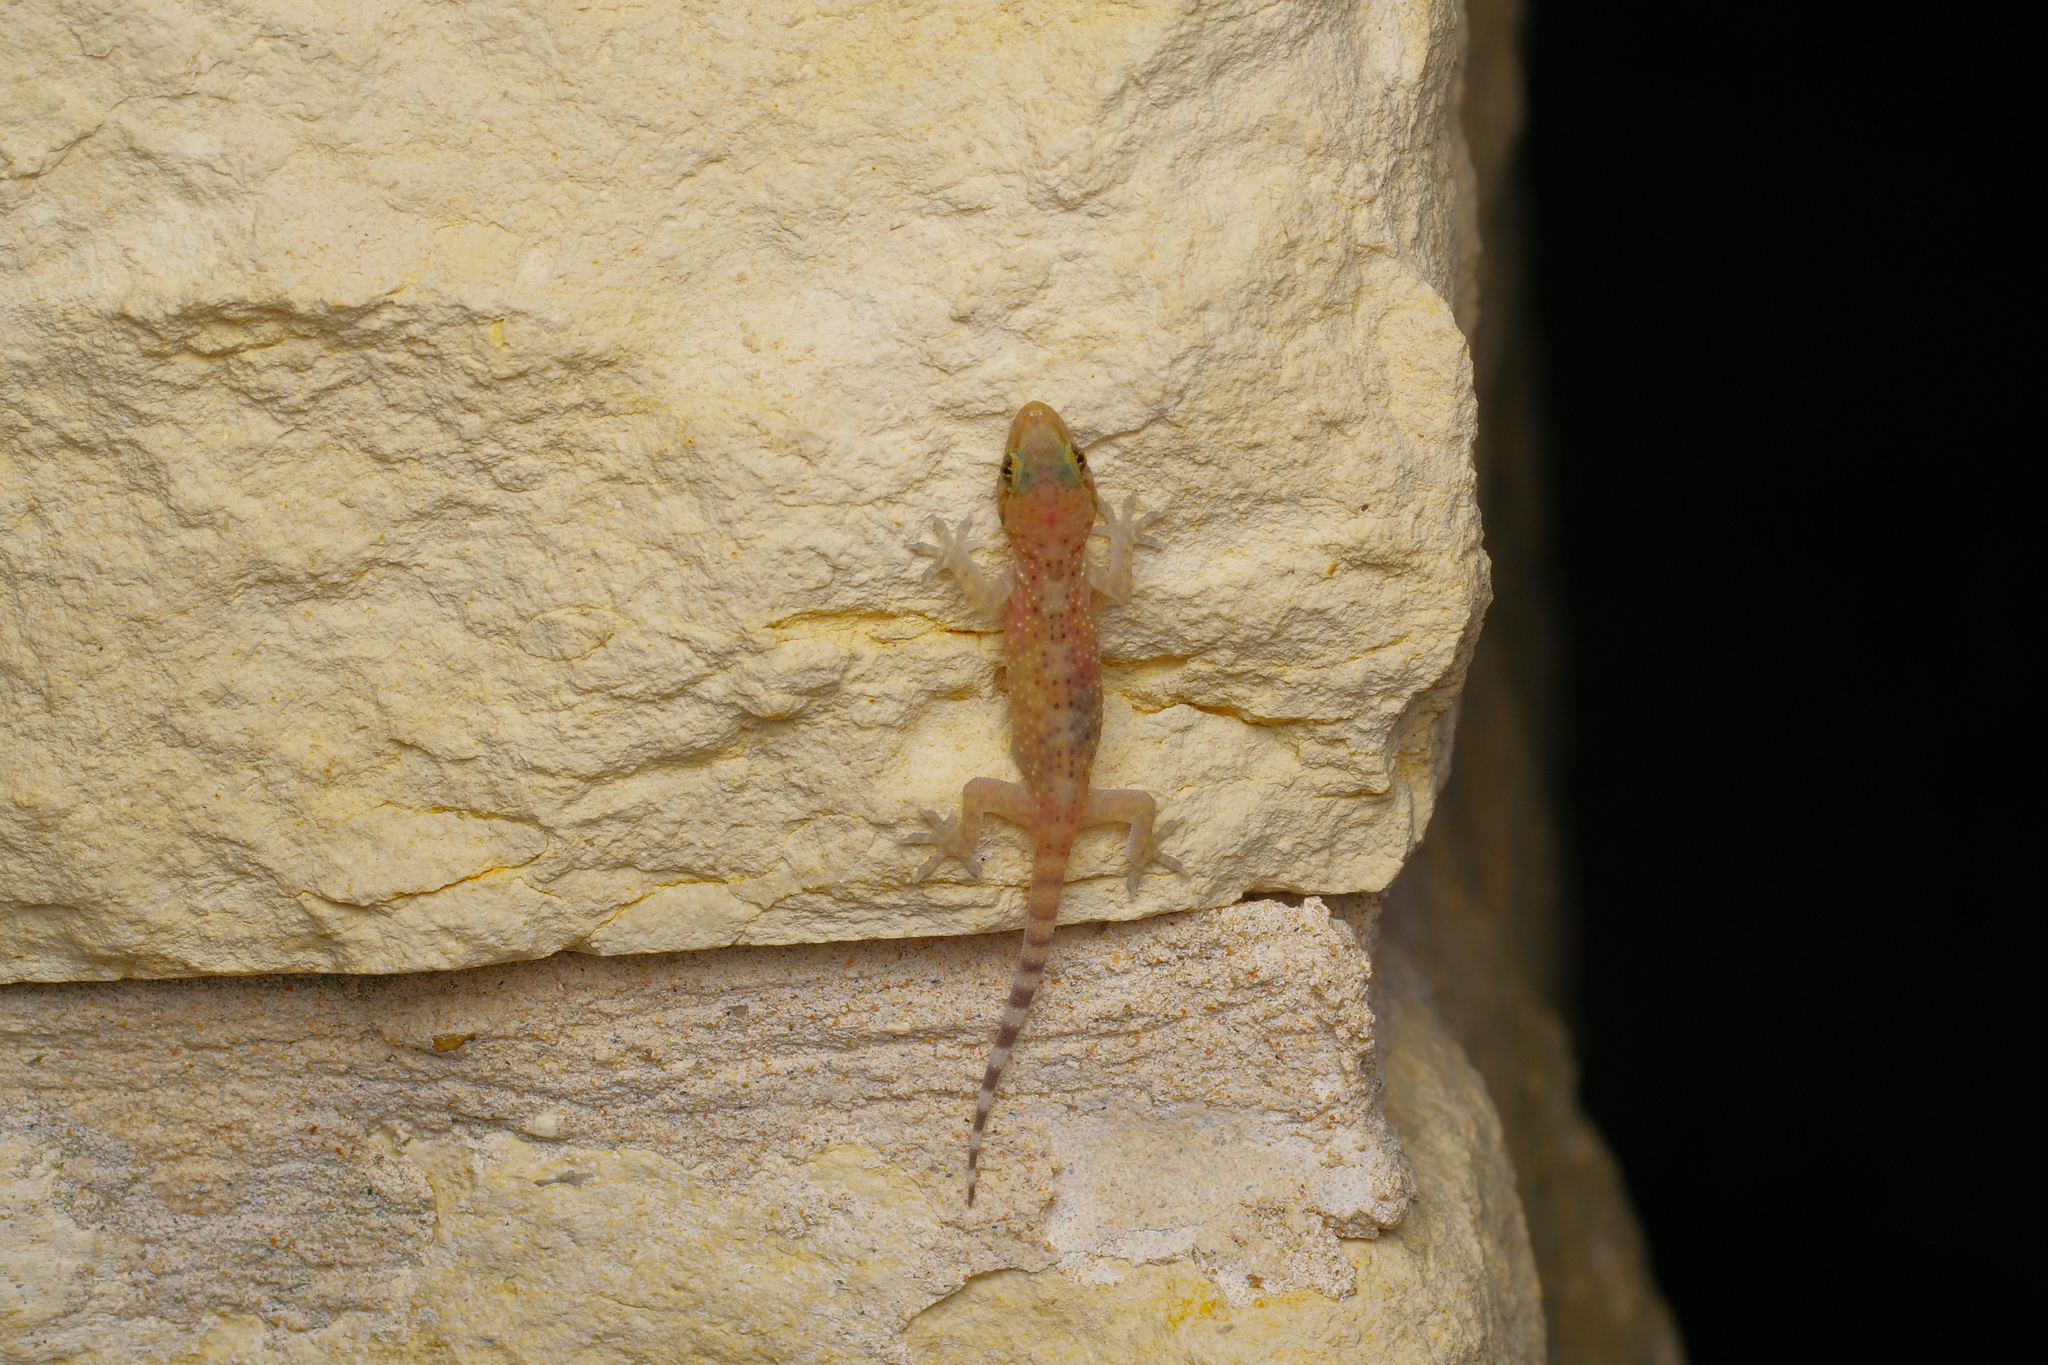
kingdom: Animalia
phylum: Chordata
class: Squamata
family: Gekkonidae
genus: Hemidactylus
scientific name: Hemidactylus turcicus
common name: Turkish gecko
